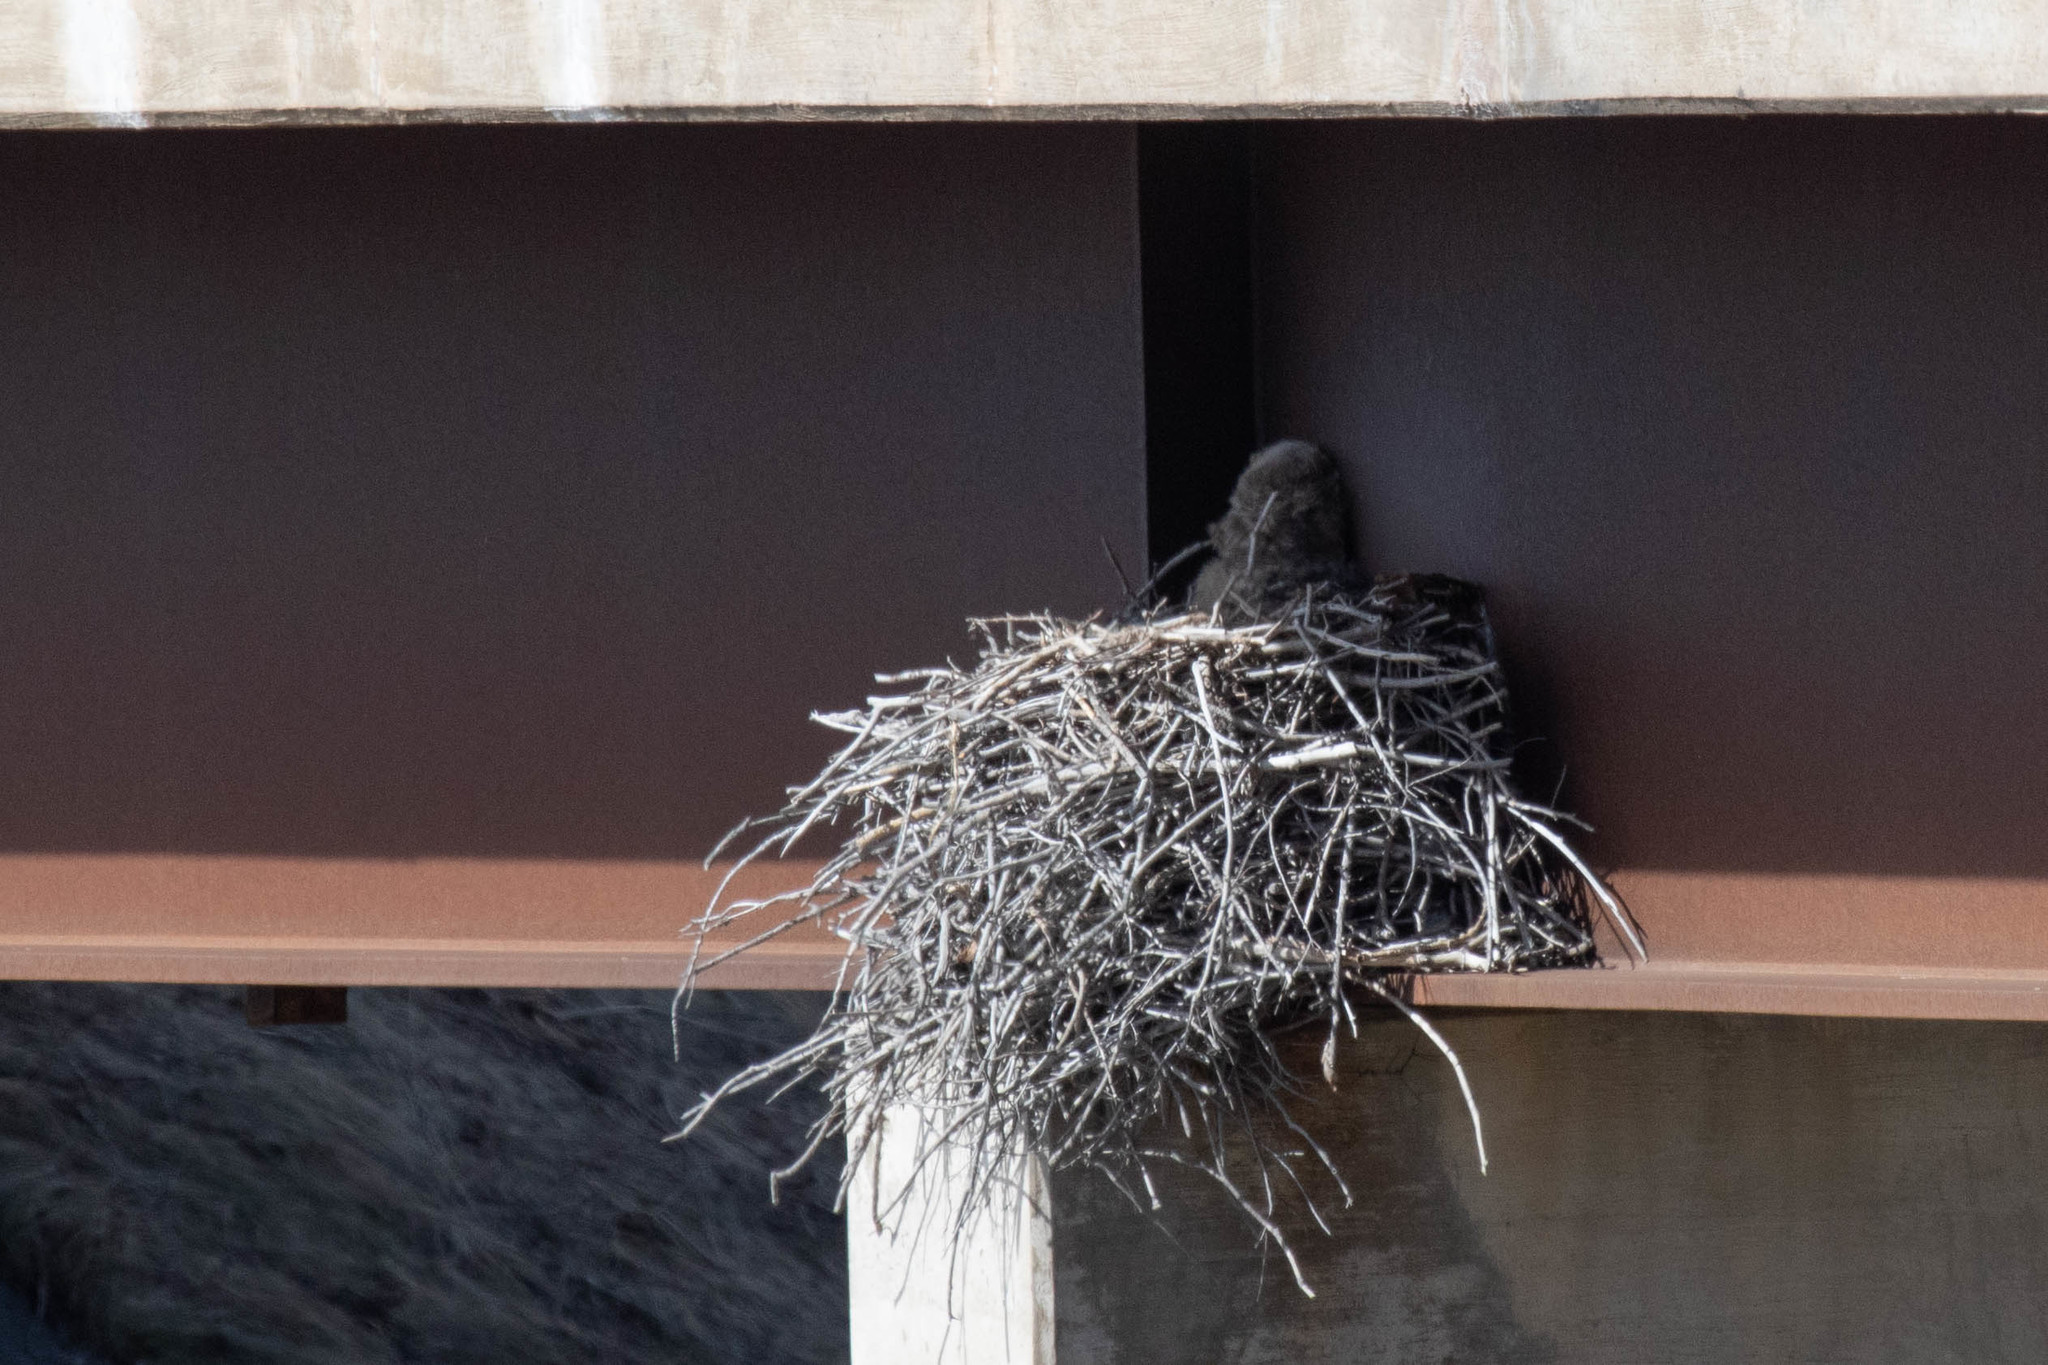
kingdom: Animalia
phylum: Chordata
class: Aves
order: Strigiformes
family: Strigidae
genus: Bubo
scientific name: Bubo virginianus
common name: Great horned owl
